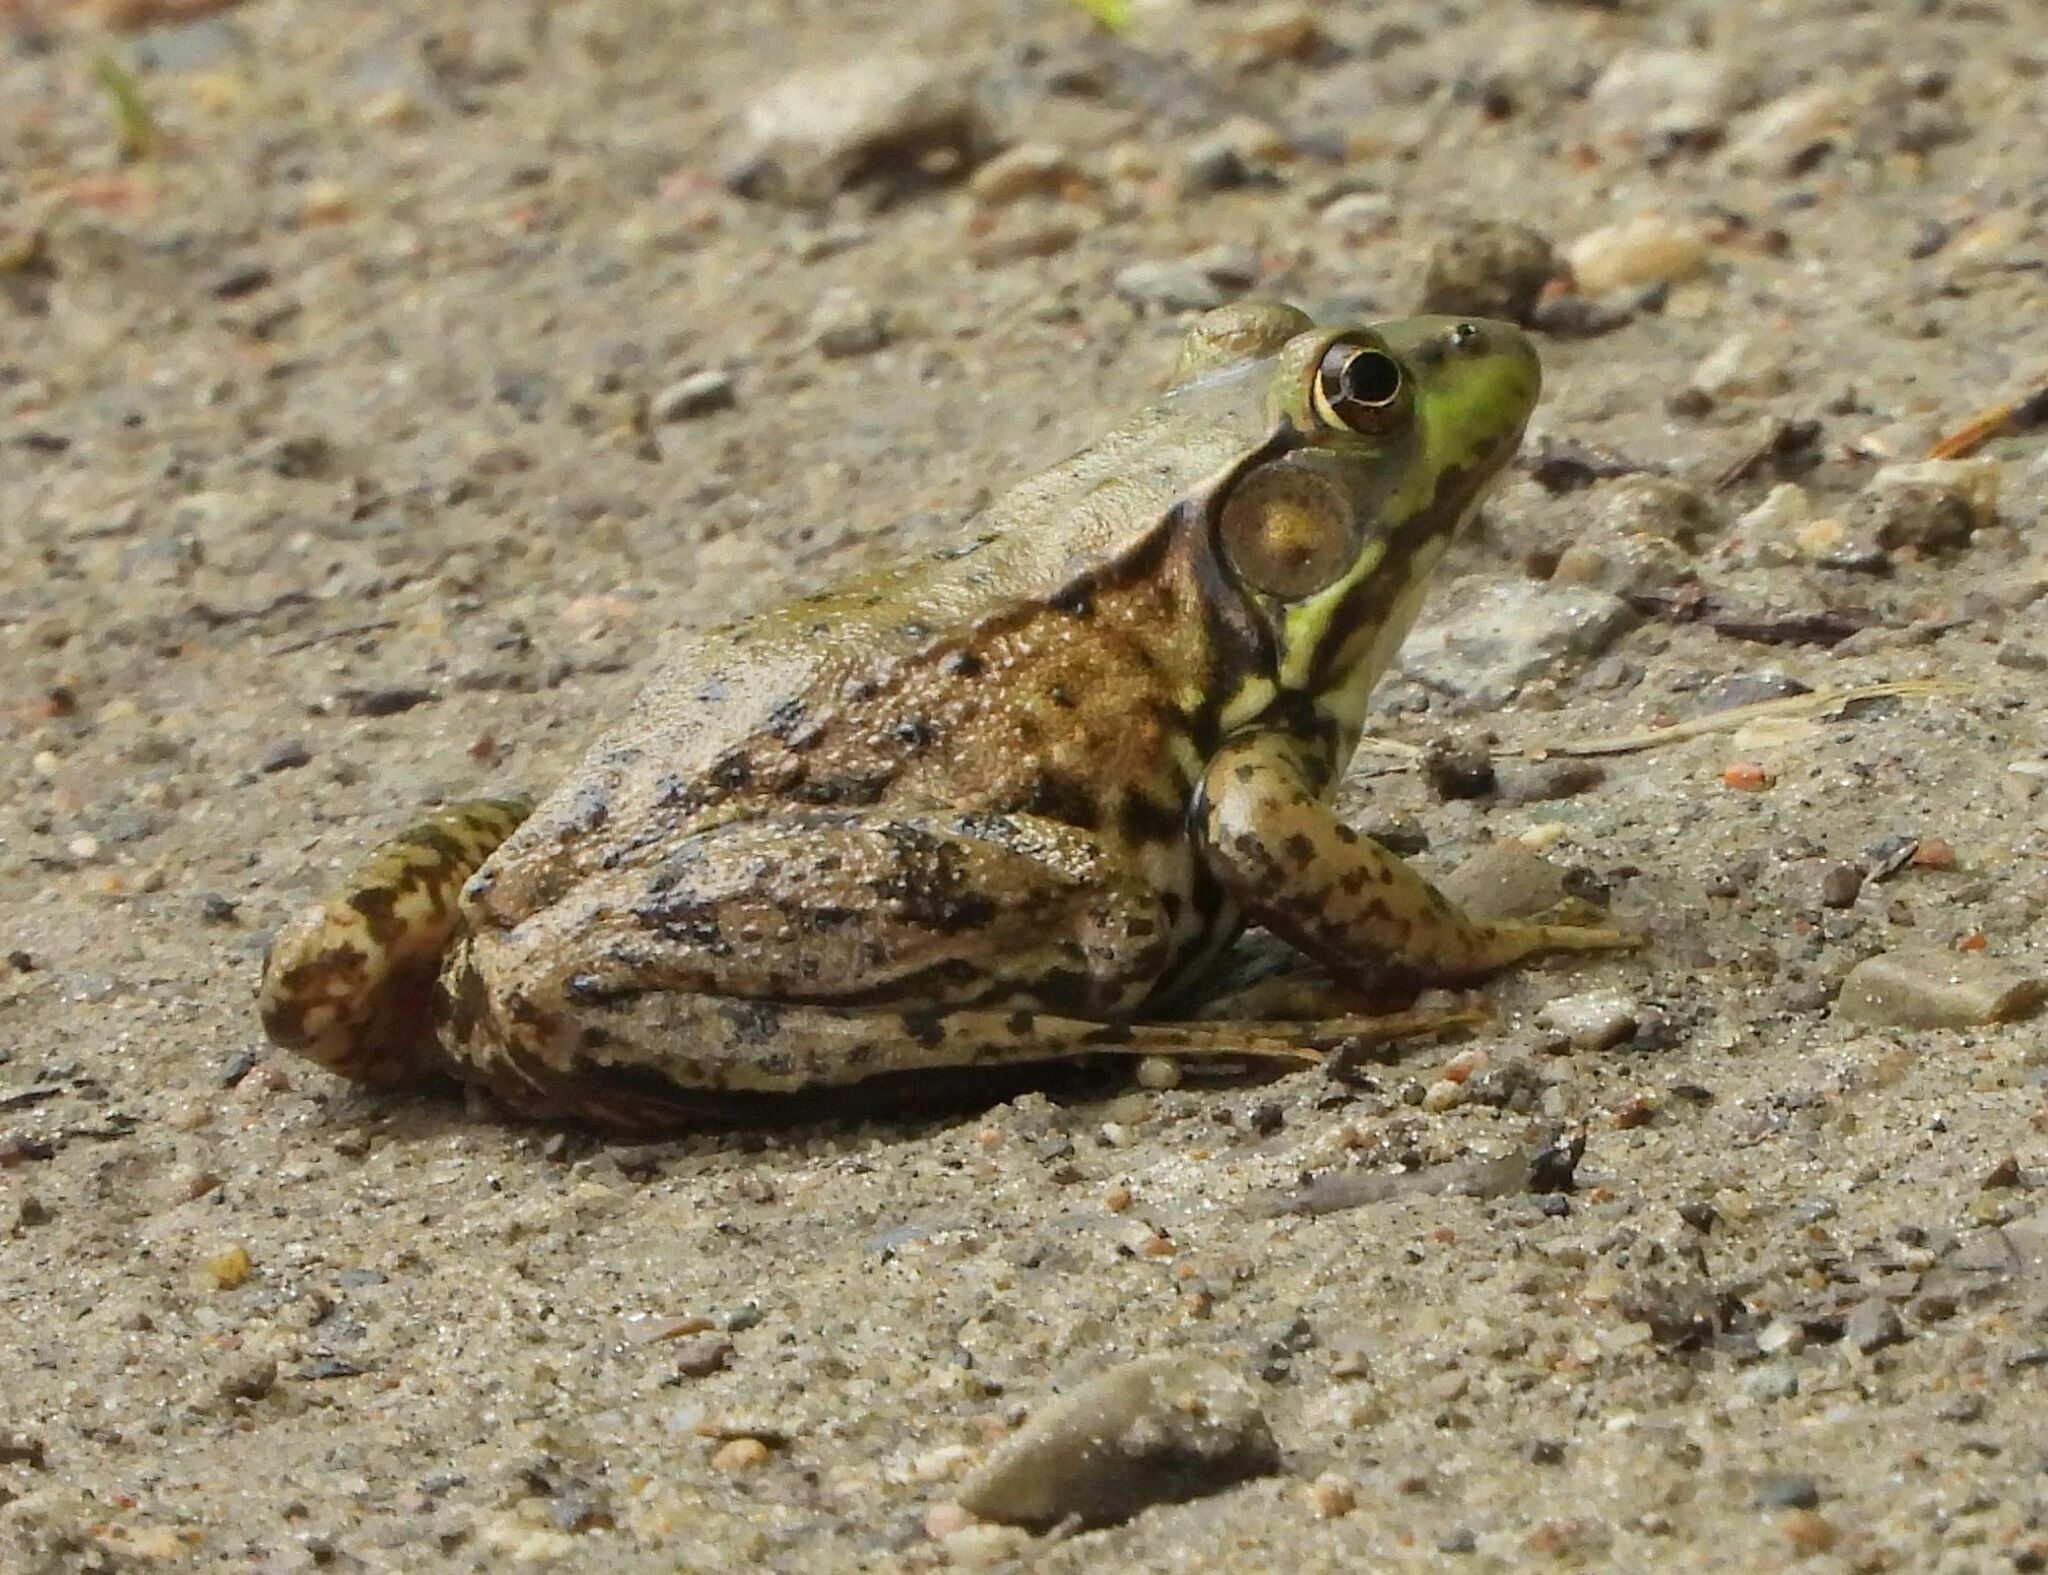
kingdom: Animalia
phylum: Chordata
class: Amphibia
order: Anura
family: Ranidae
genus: Lithobates
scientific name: Lithobates clamitans
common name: Green frog
